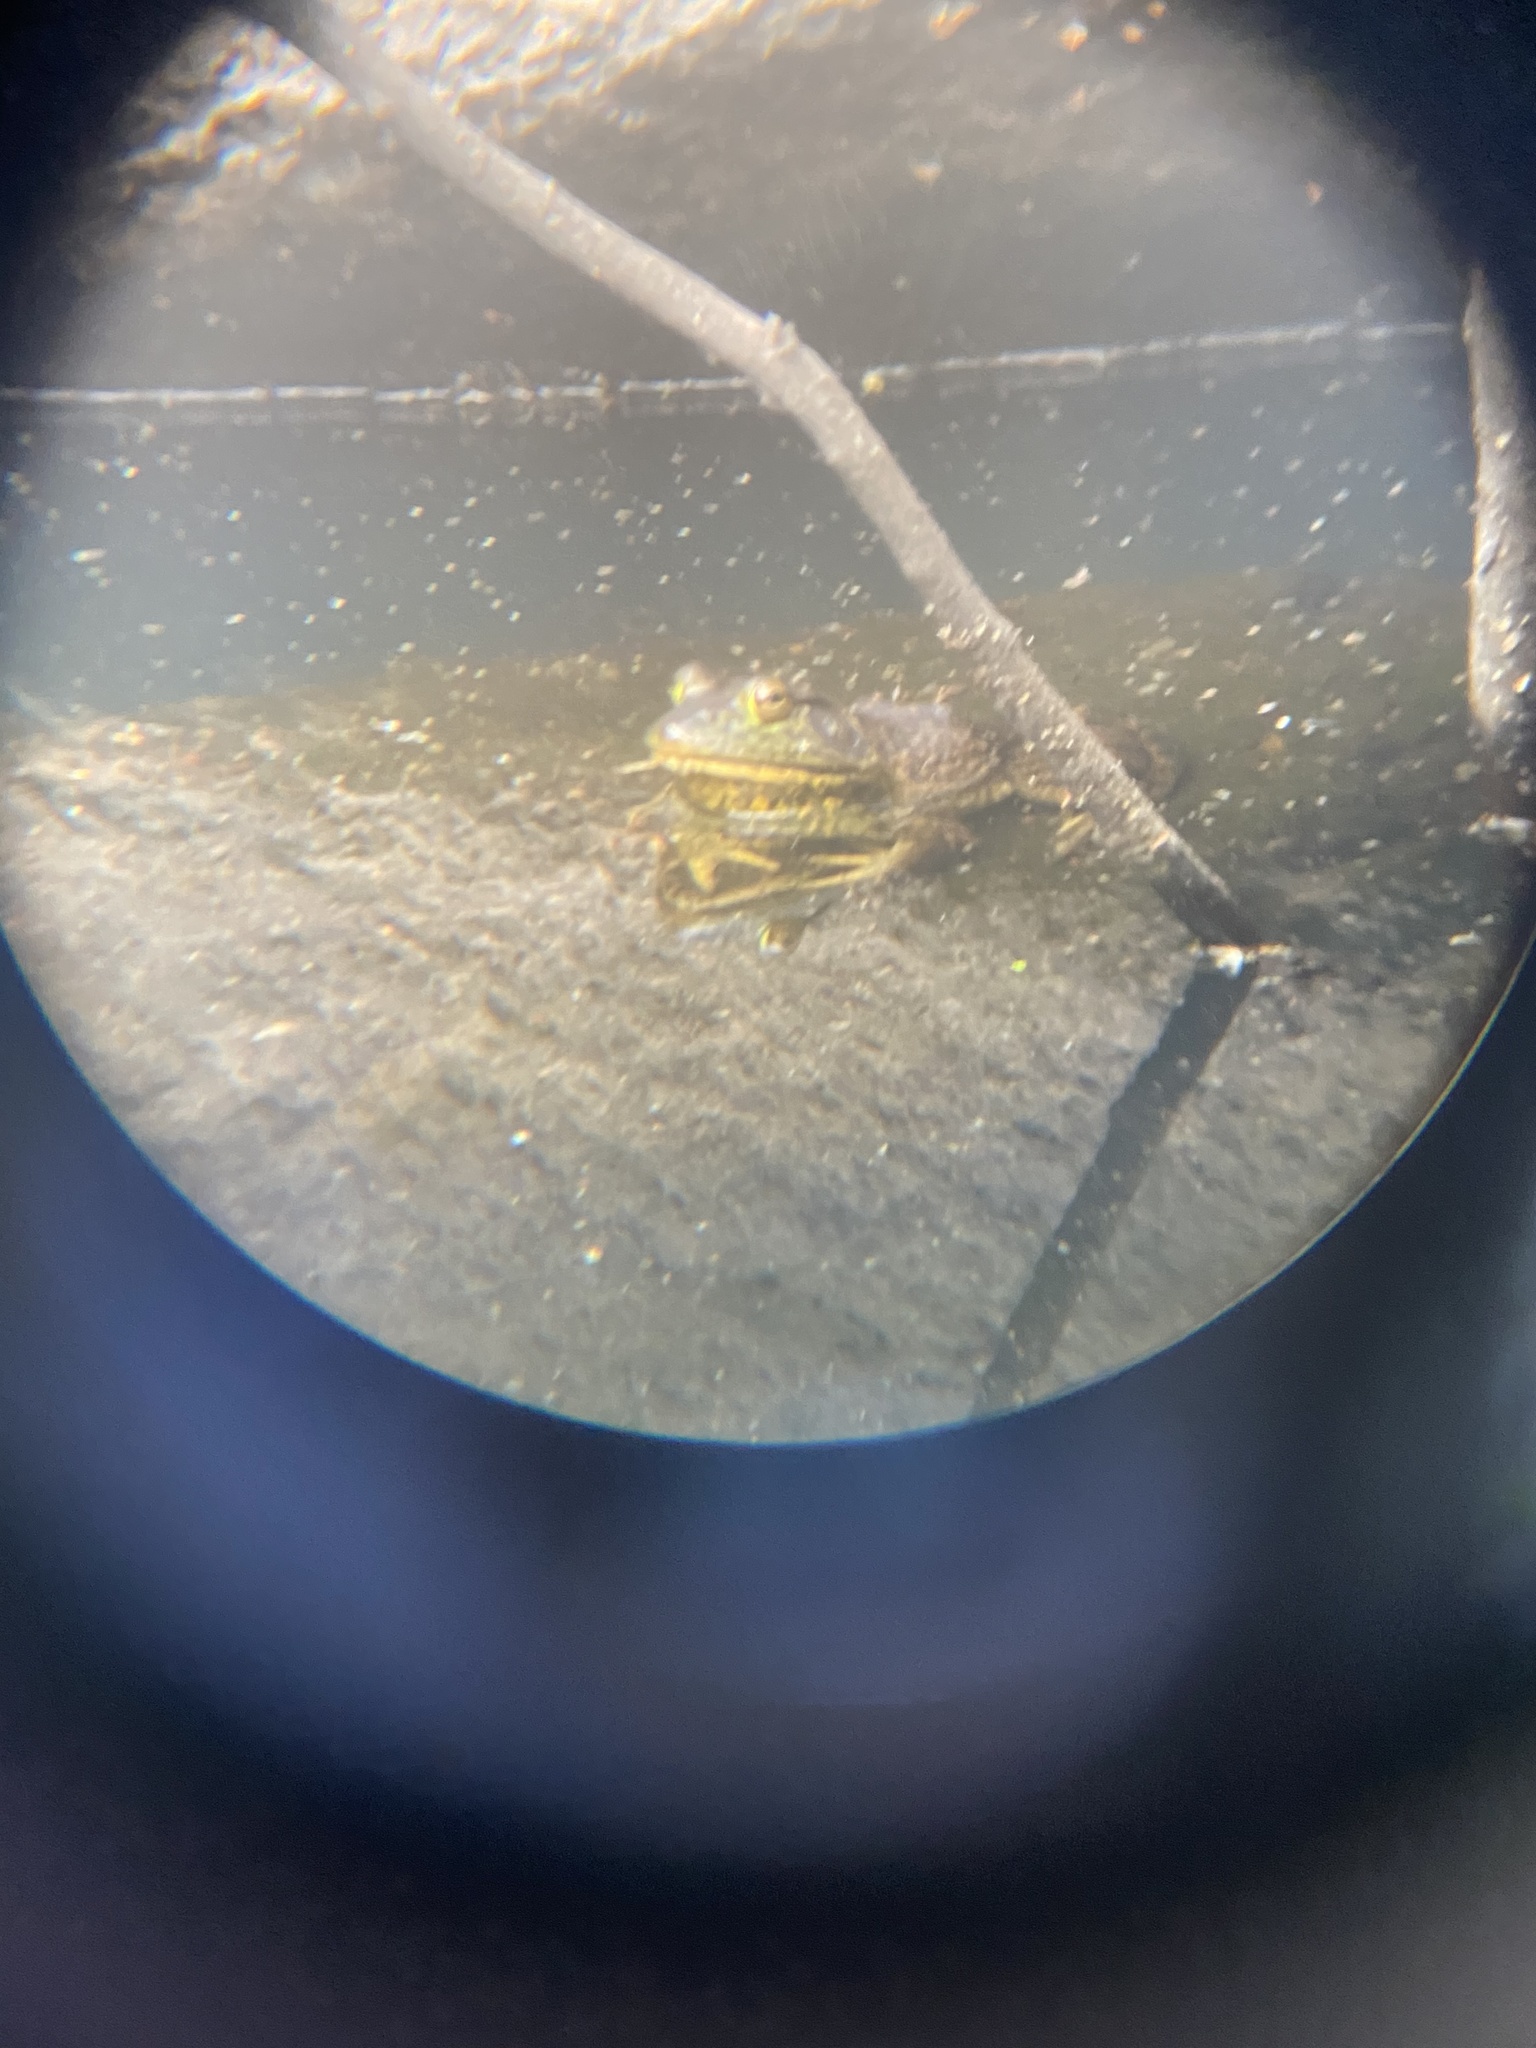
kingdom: Animalia
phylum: Chordata
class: Amphibia
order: Anura
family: Ranidae
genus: Lithobates
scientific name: Lithobates catesbeianus
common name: American bullfrog
